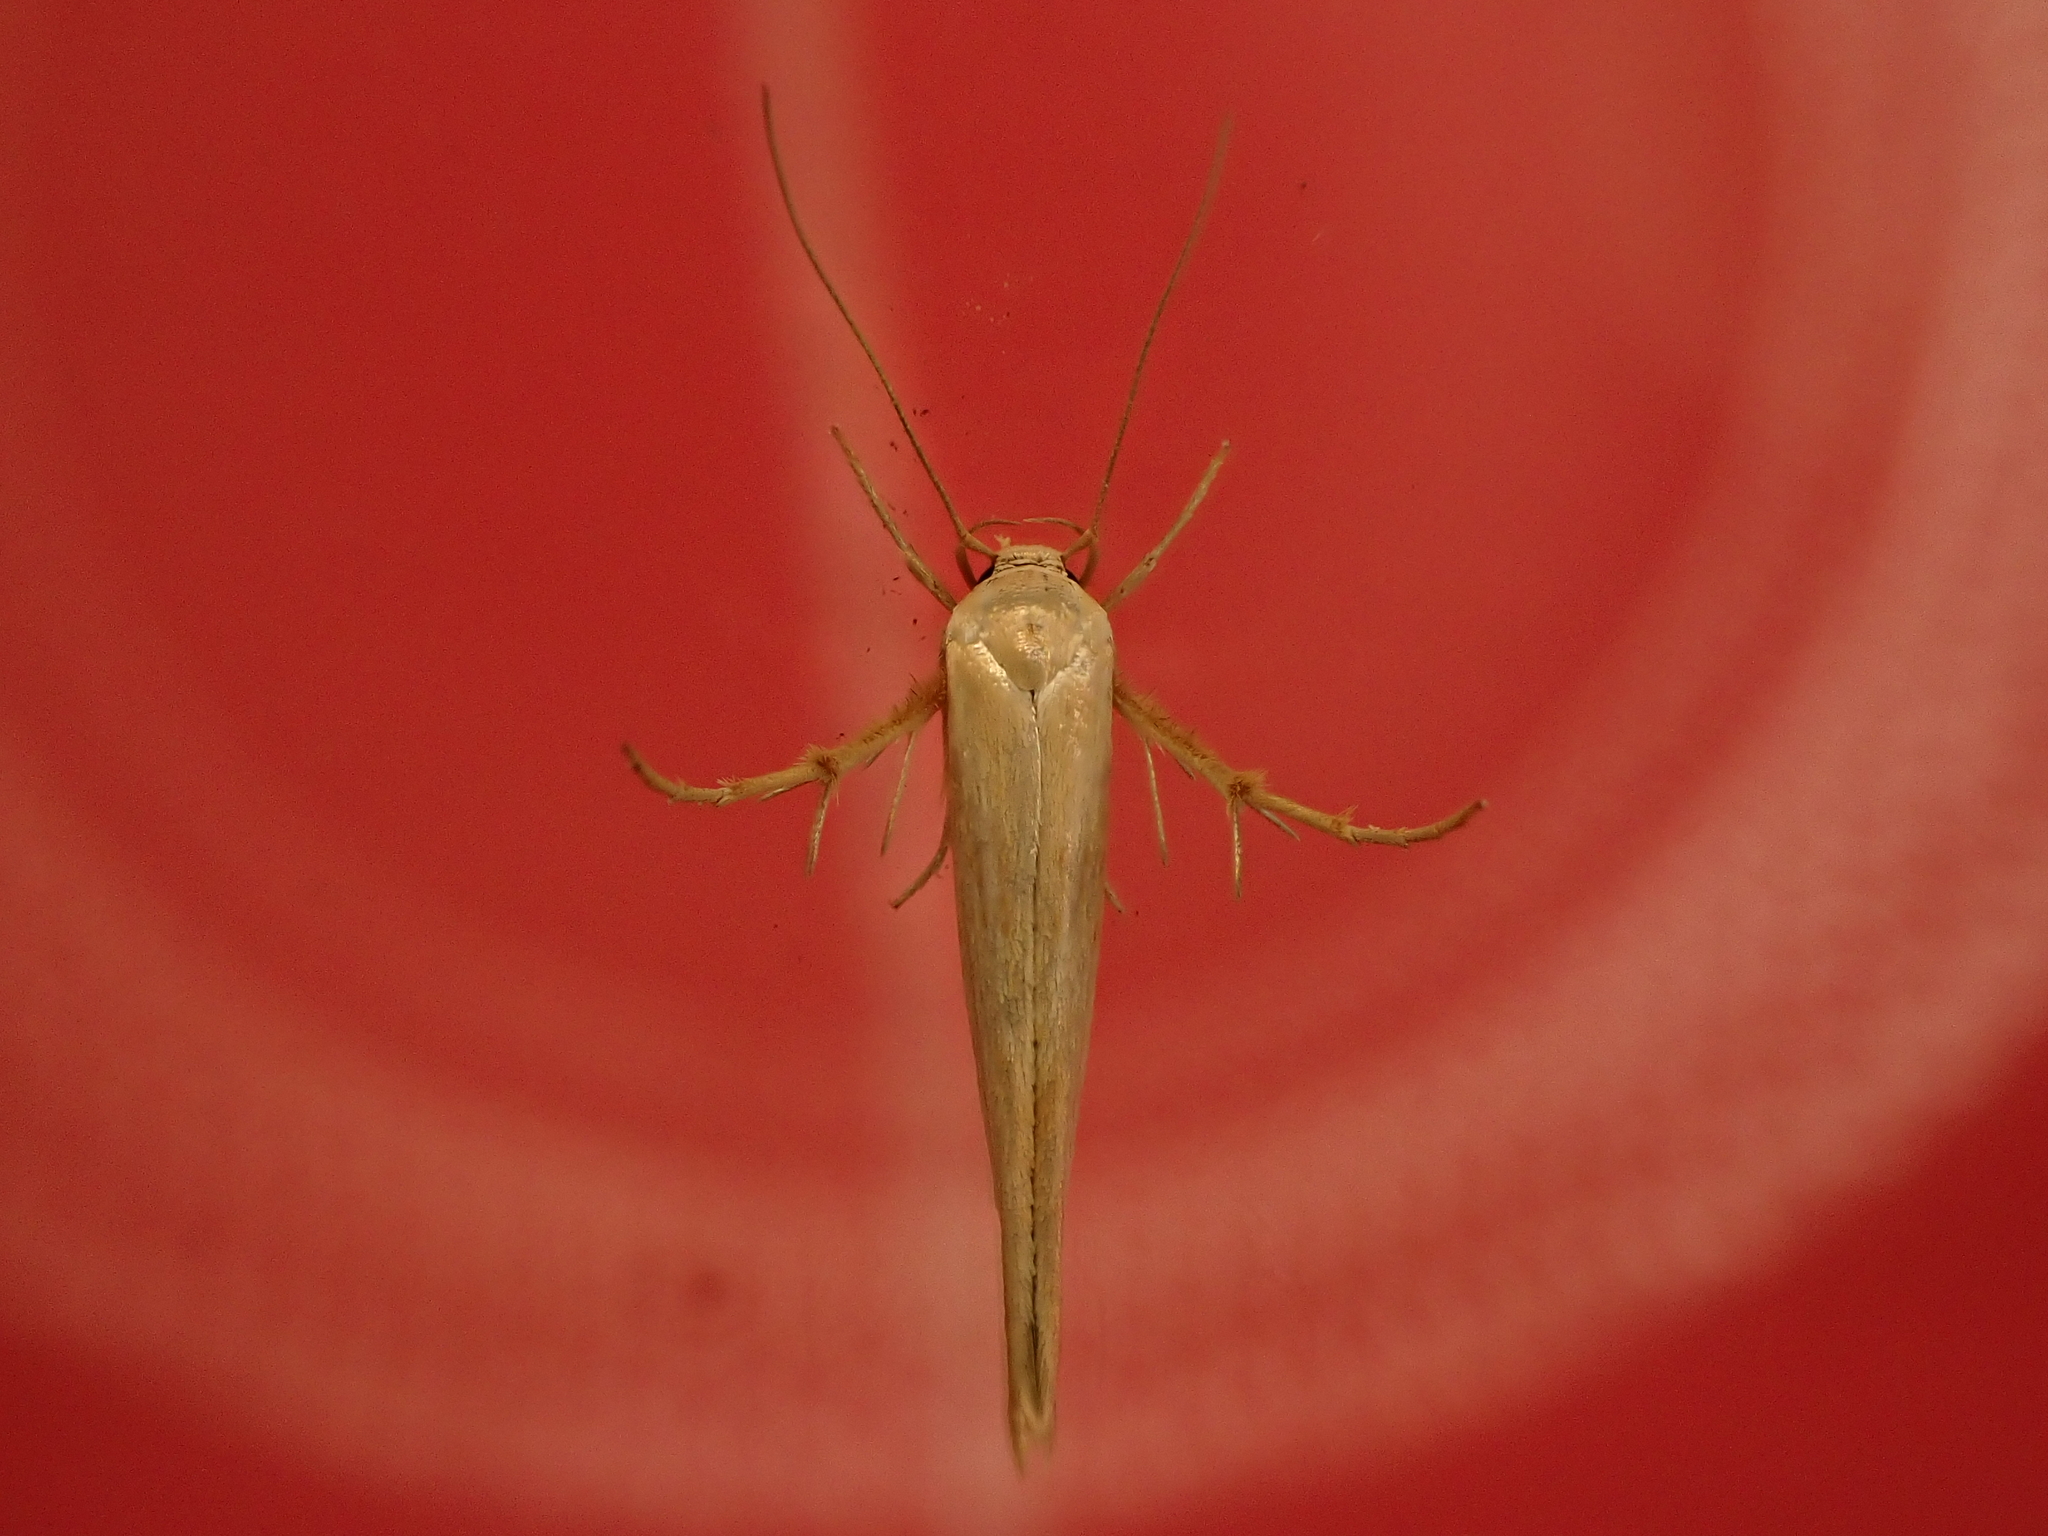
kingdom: Animalia
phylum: Arthropoda
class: Insecta
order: Lepidoptera
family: Stathmopodidae
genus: Stathmopoda
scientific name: Stathmopoda aposema
